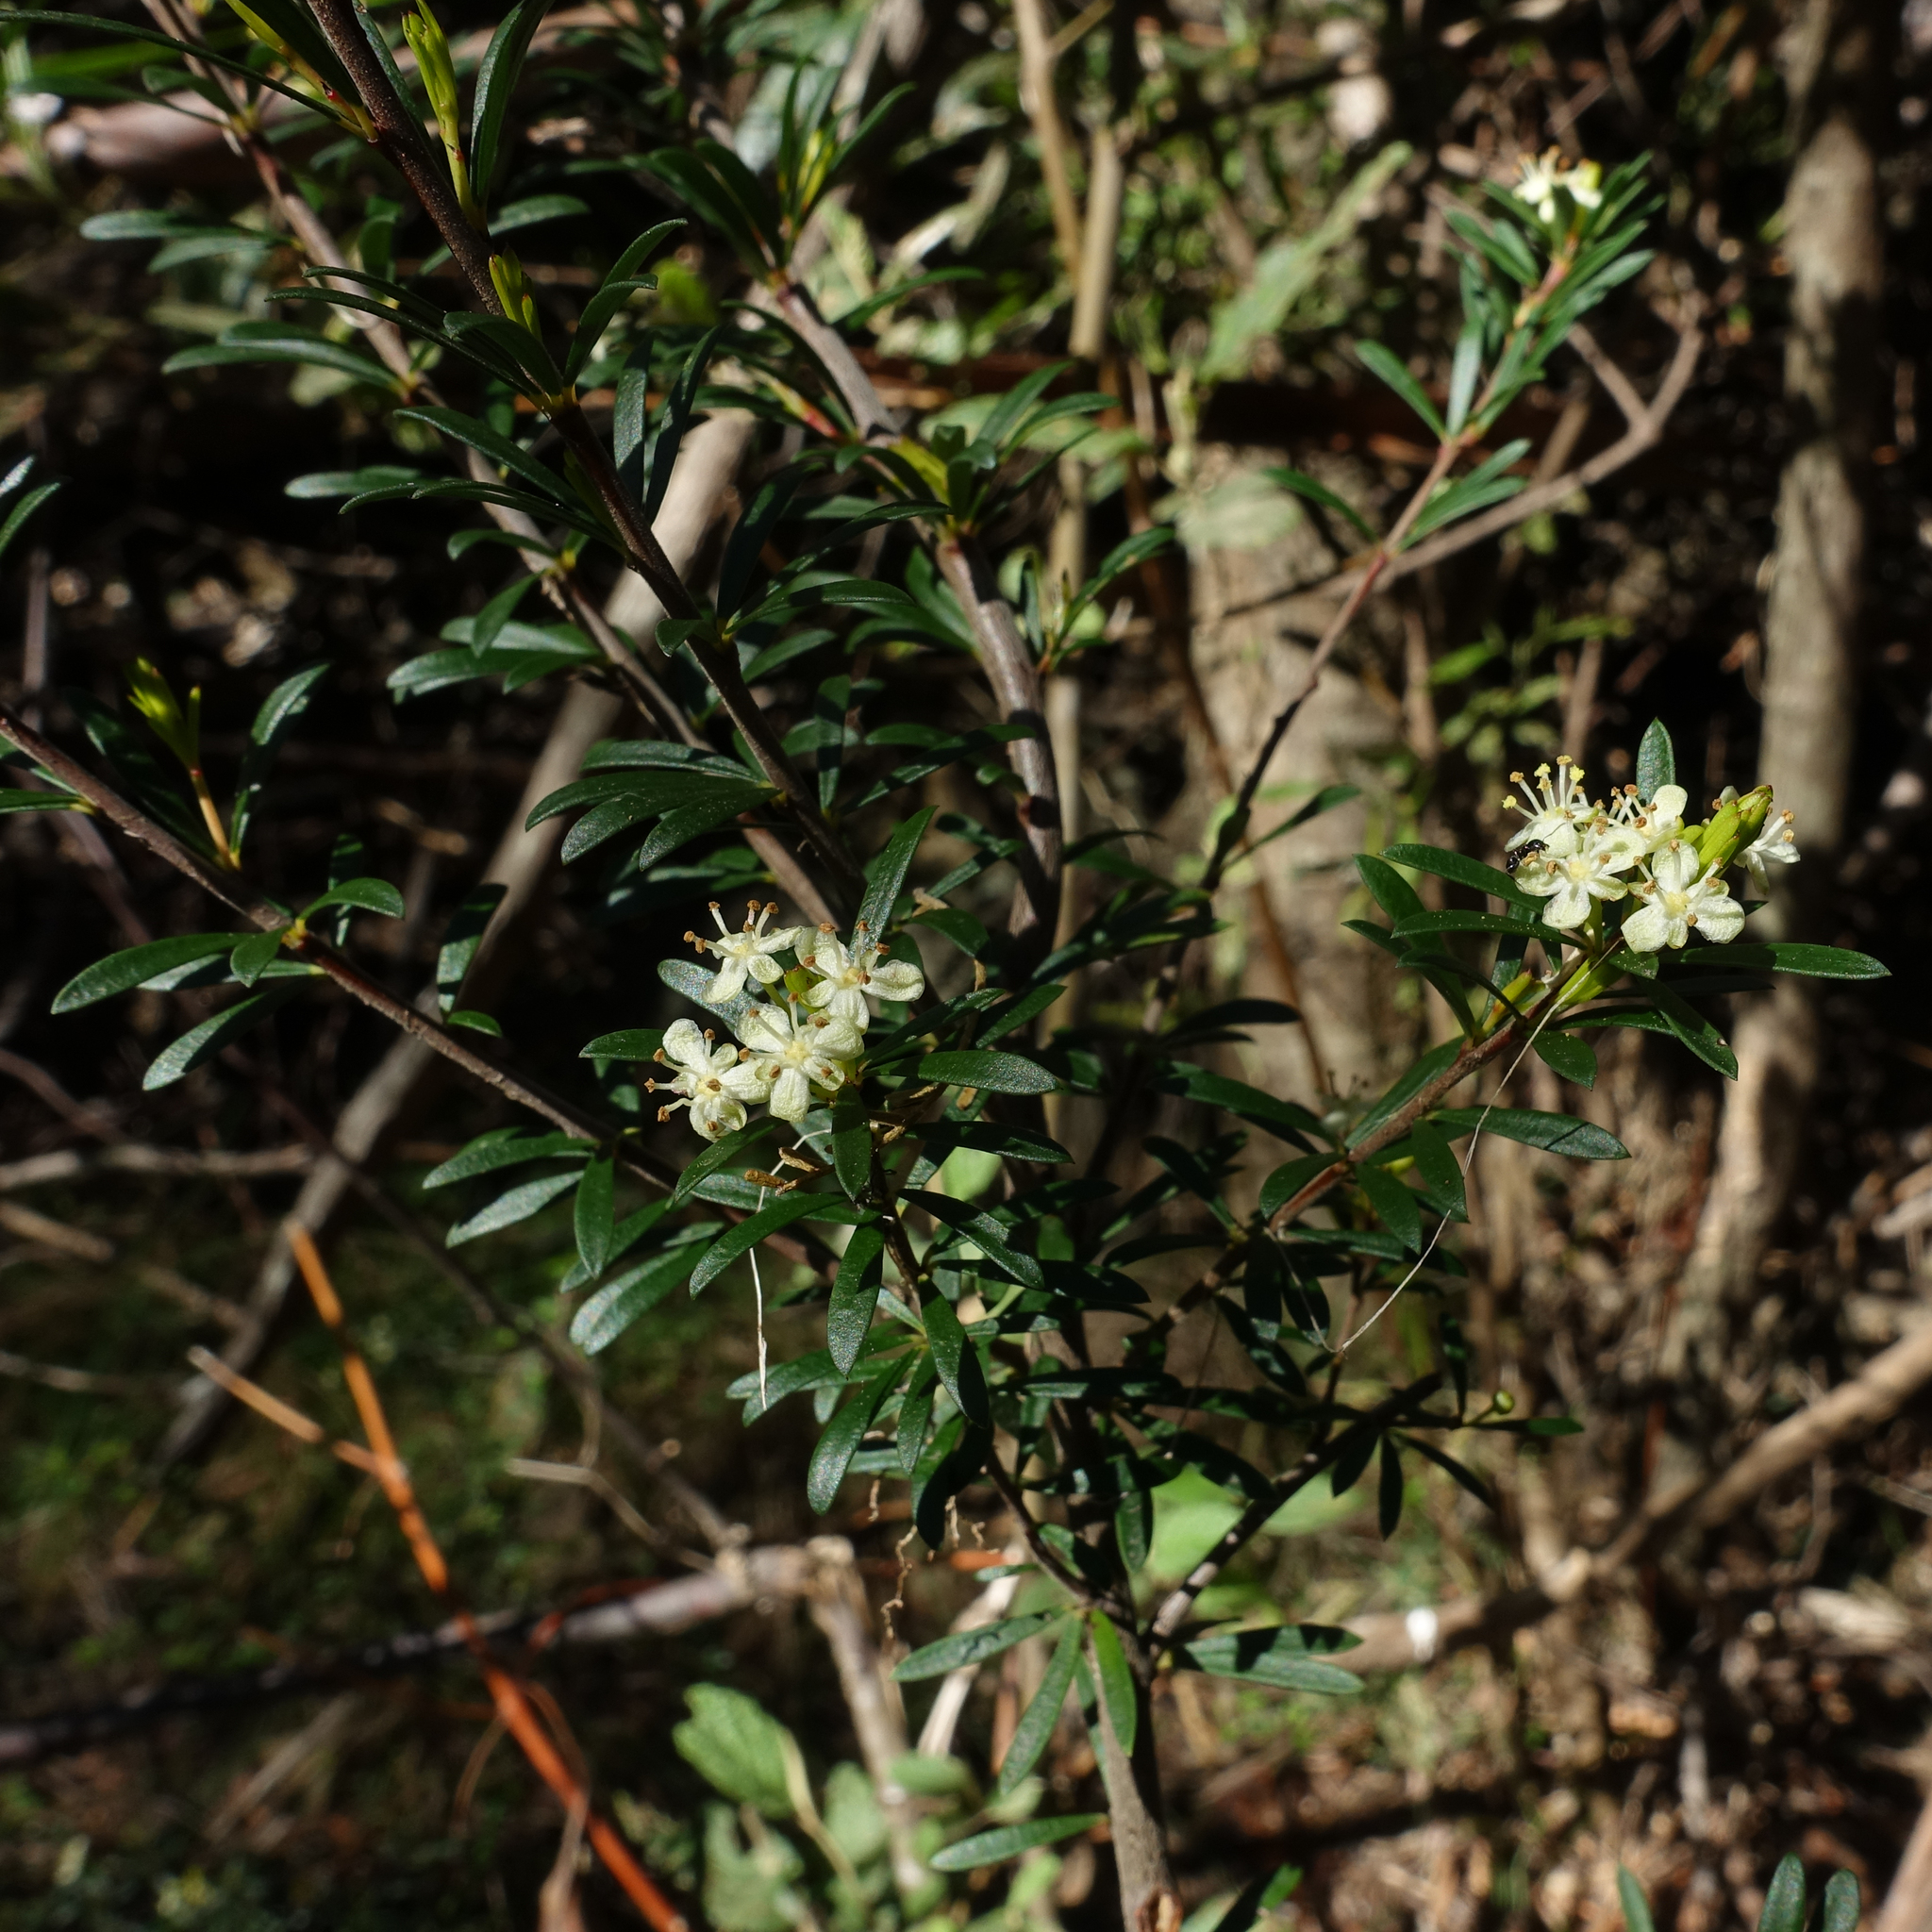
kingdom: Plantae
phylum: Tracheophyta
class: Magnoliopsida
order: Malpighiales
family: Picrodendraceae
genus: Micrantheum
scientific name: Micrantheum hexandrum
